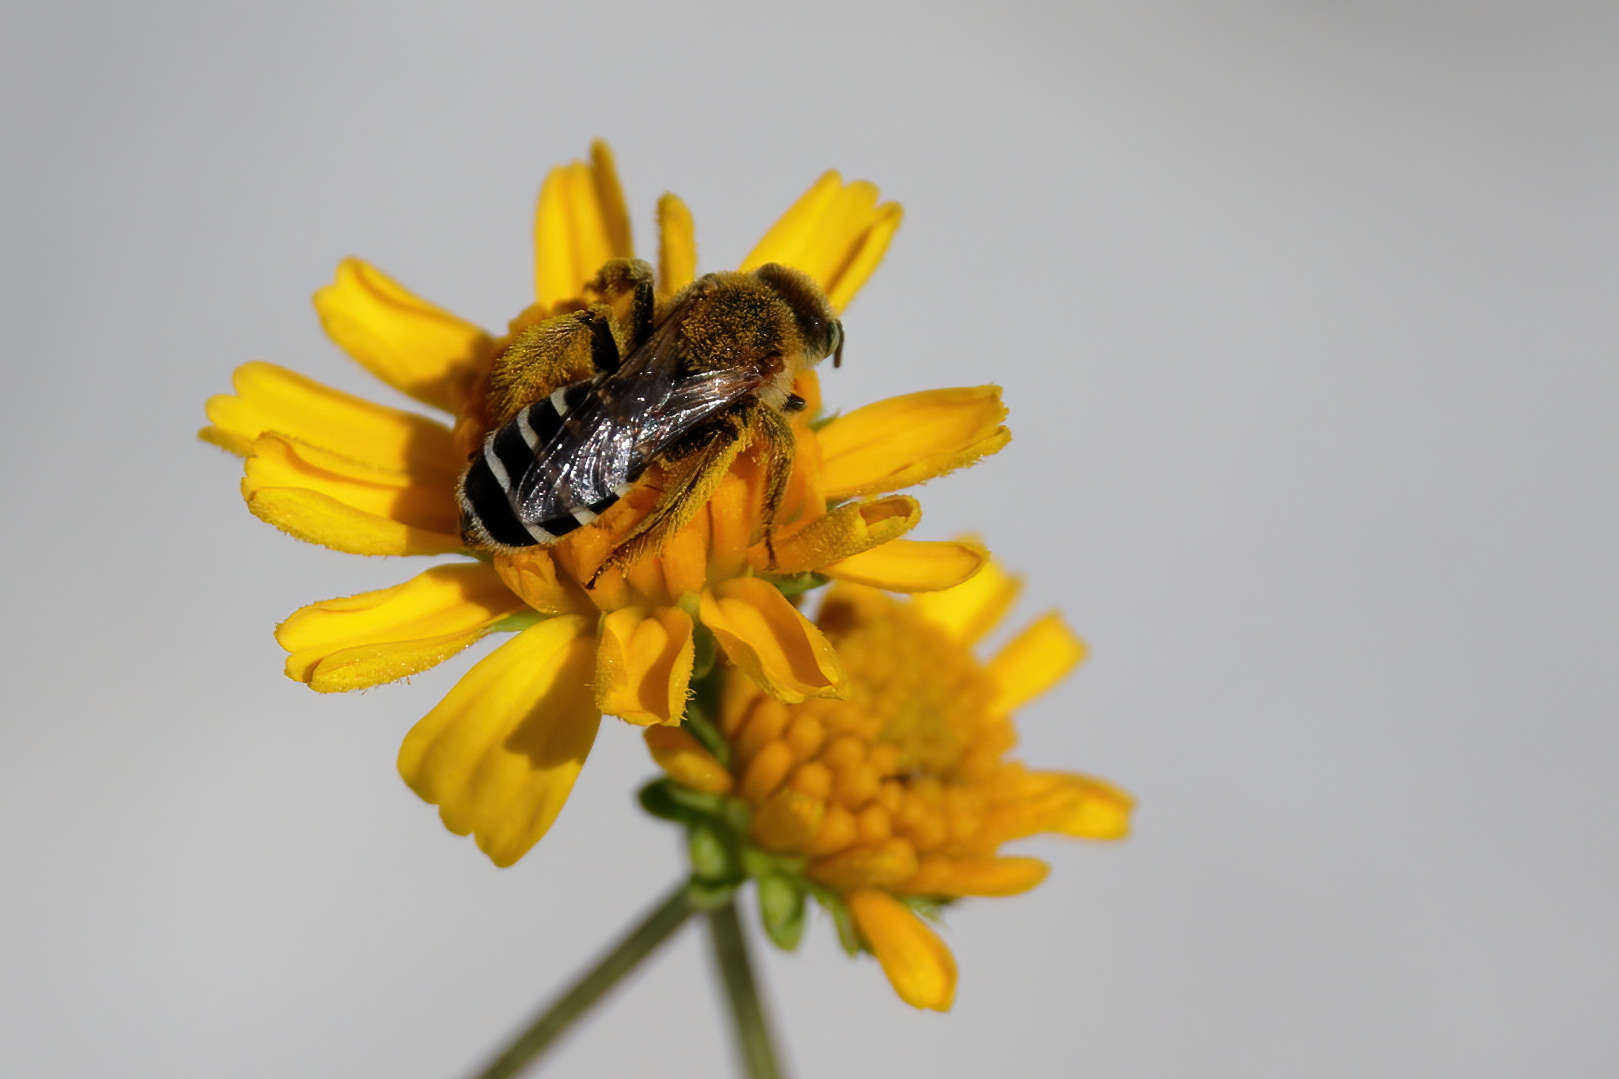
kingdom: Animalia
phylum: Arthropoda
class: Insecta
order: Hymenoptera
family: Melittidae
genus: Hesperapis
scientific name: Hesperapis oraria
